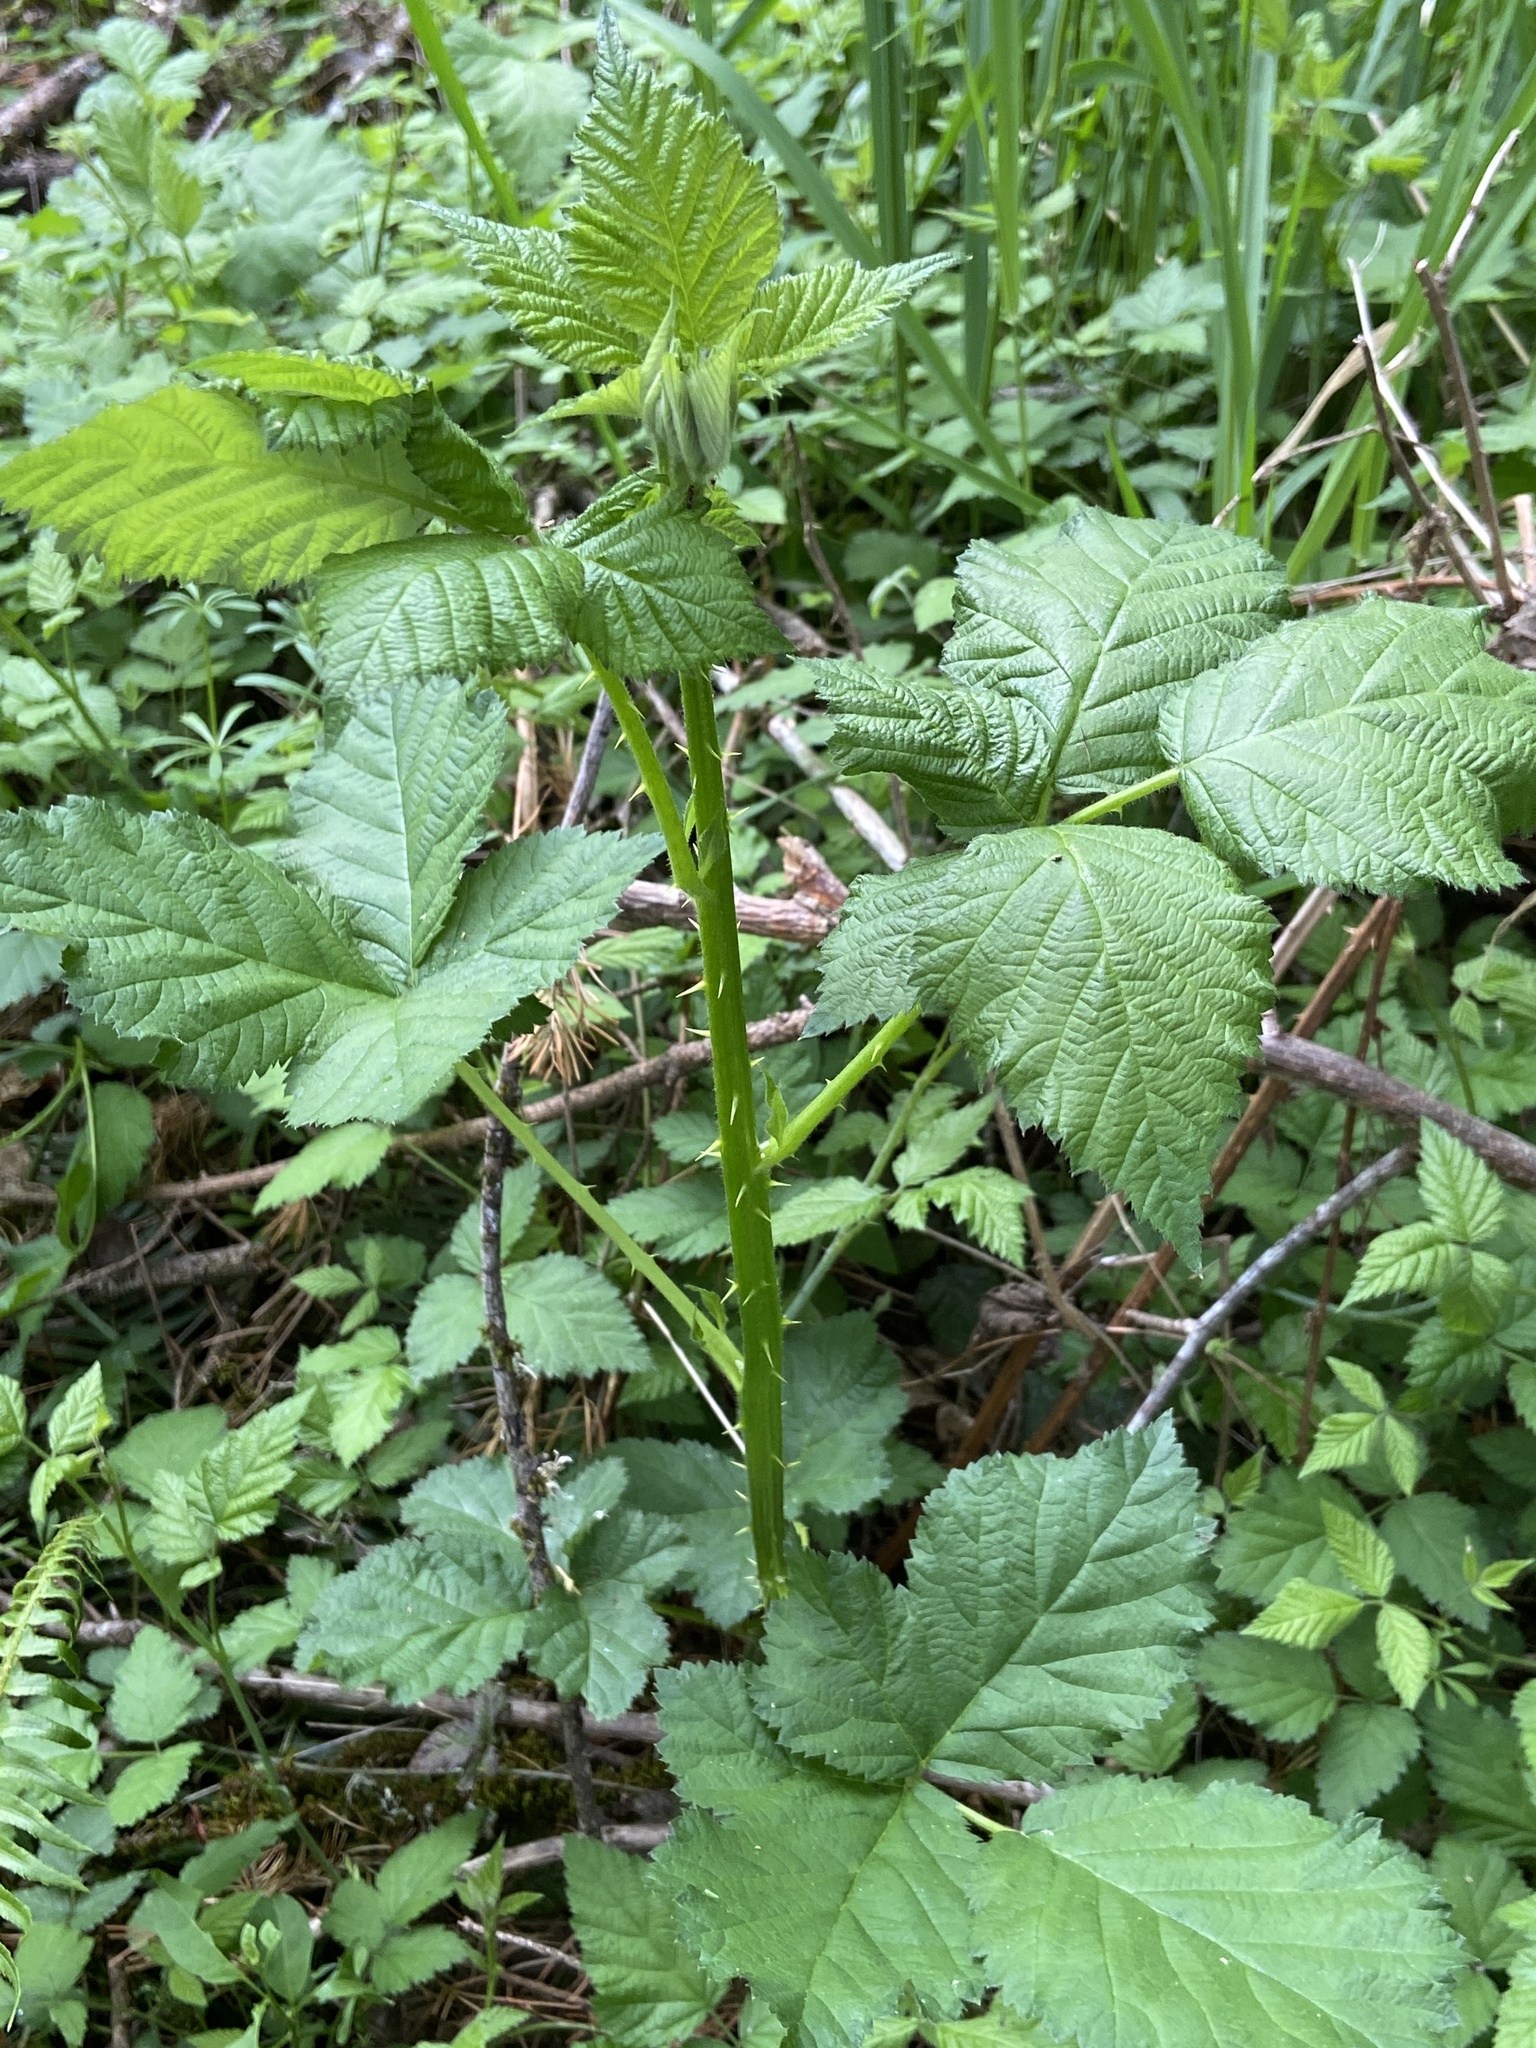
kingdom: Plantae
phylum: Tracheophyta
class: Magnoliopsida
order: Rosales
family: Rosaceae
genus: Rubus
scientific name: Rubus bifrons
